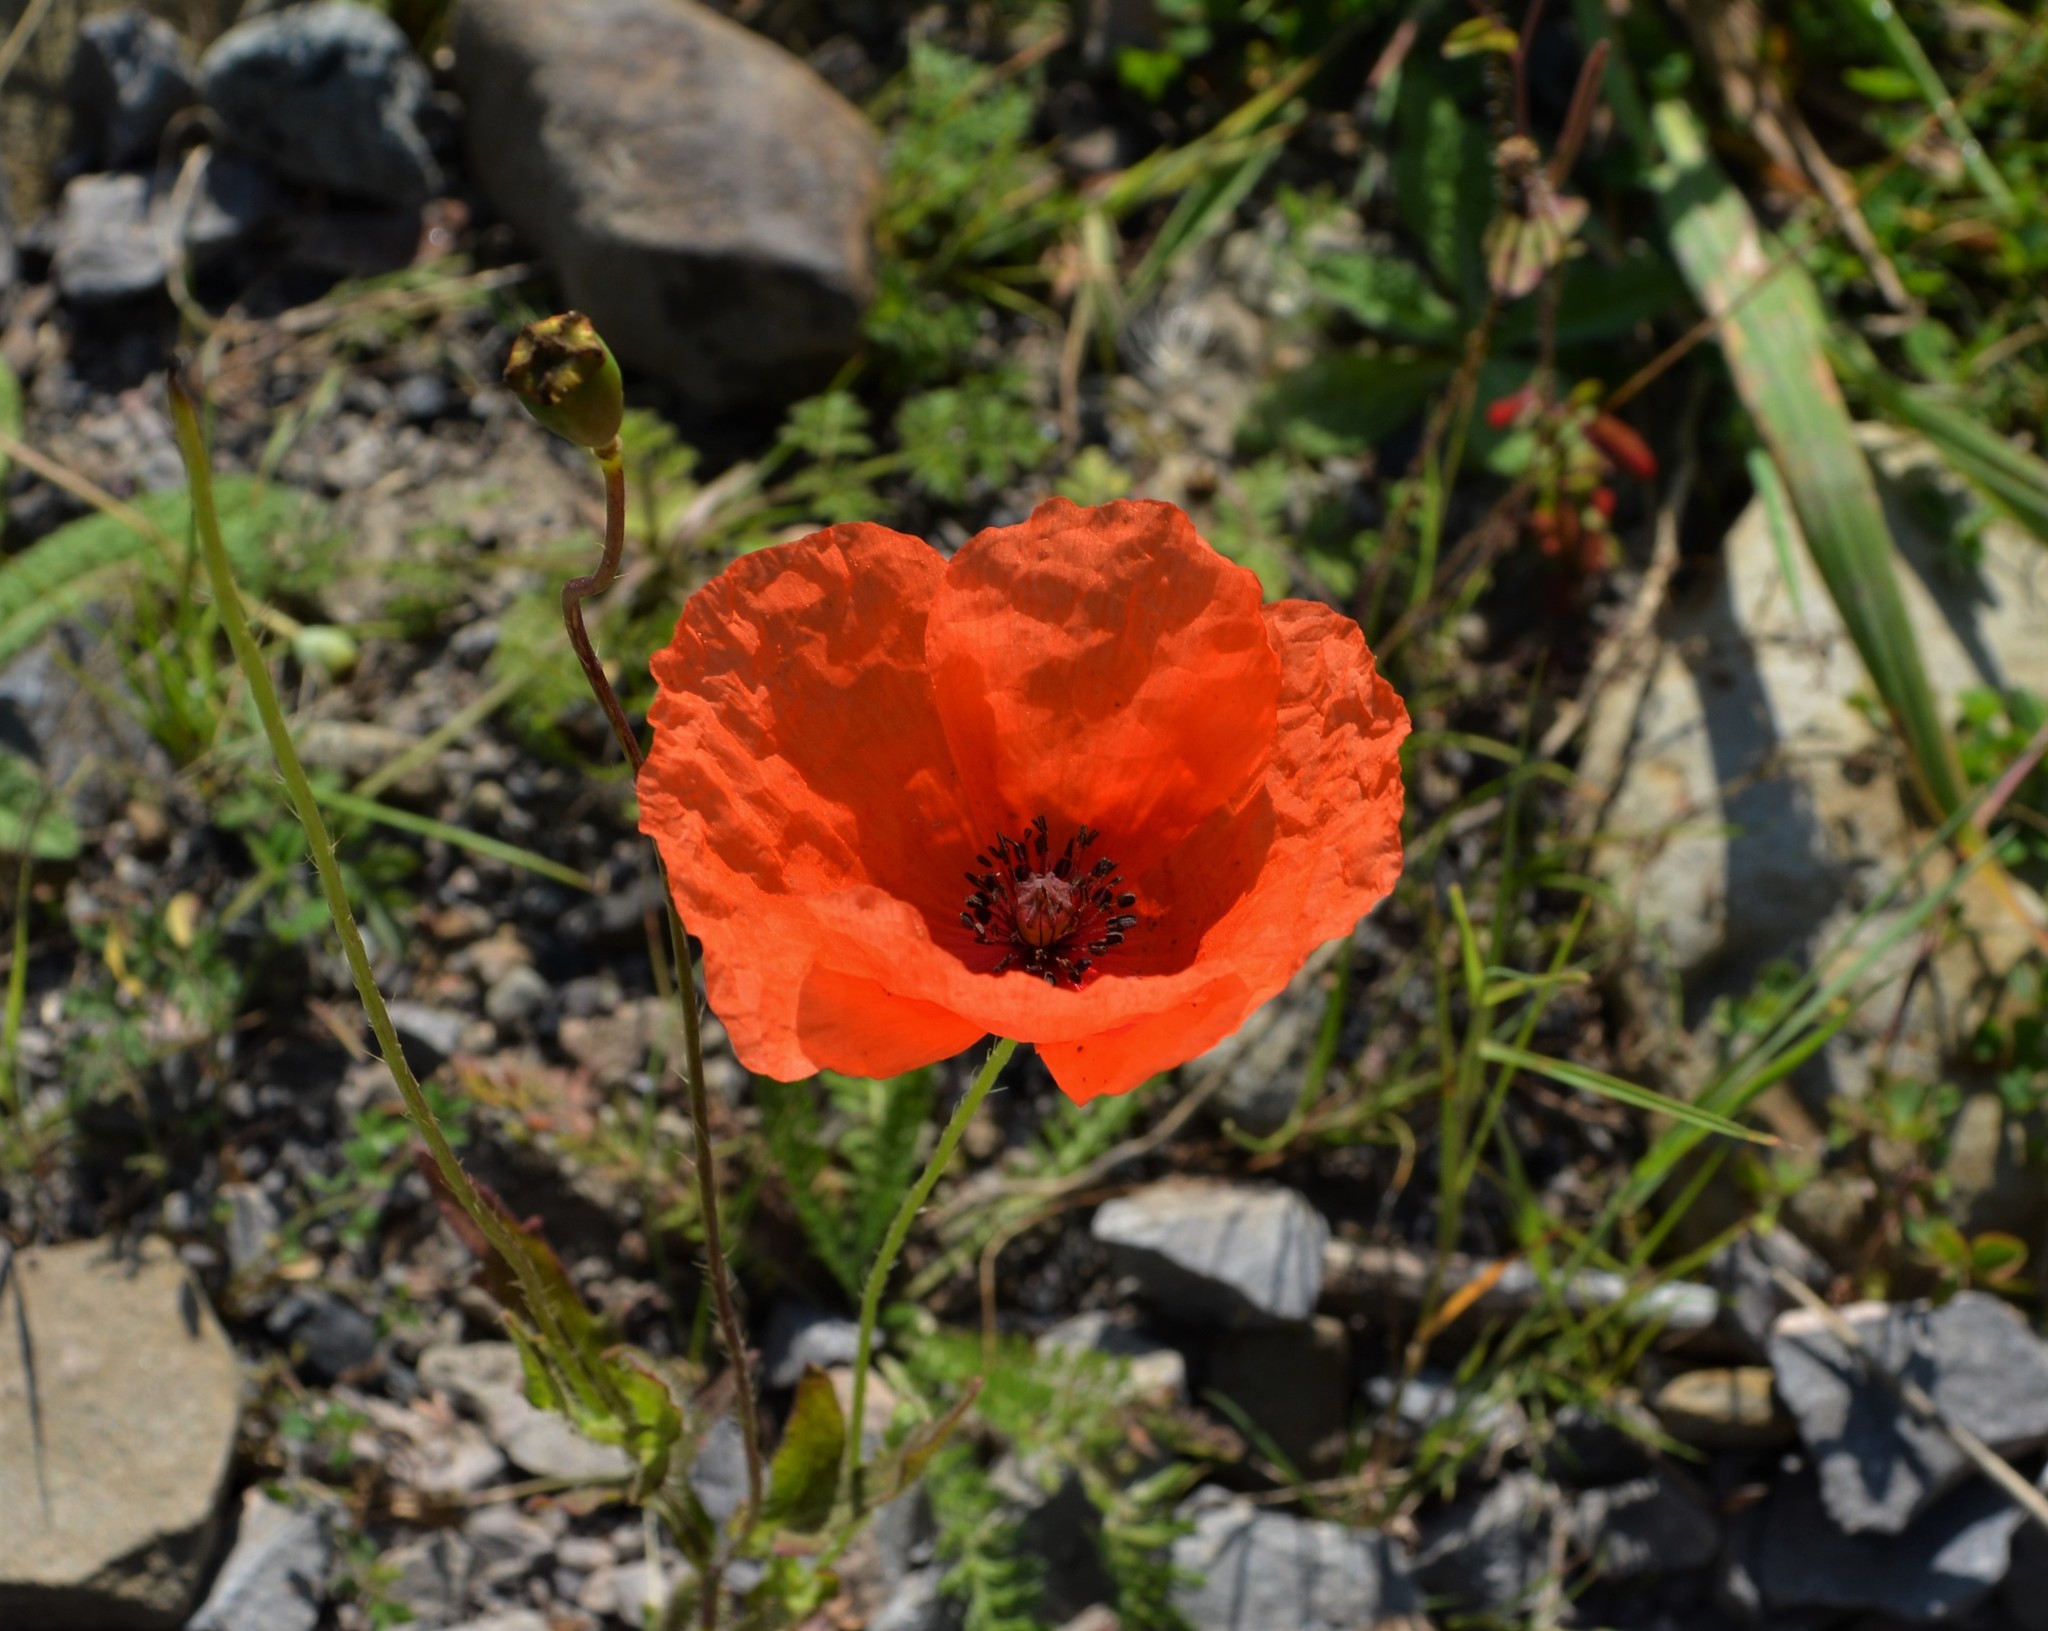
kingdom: Plantae
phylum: Tracheophyta
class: Magnoliopsida
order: Ranunculales
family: Papaveraceae
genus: Papaver
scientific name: Papaver rhoeas
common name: Corn poppy
